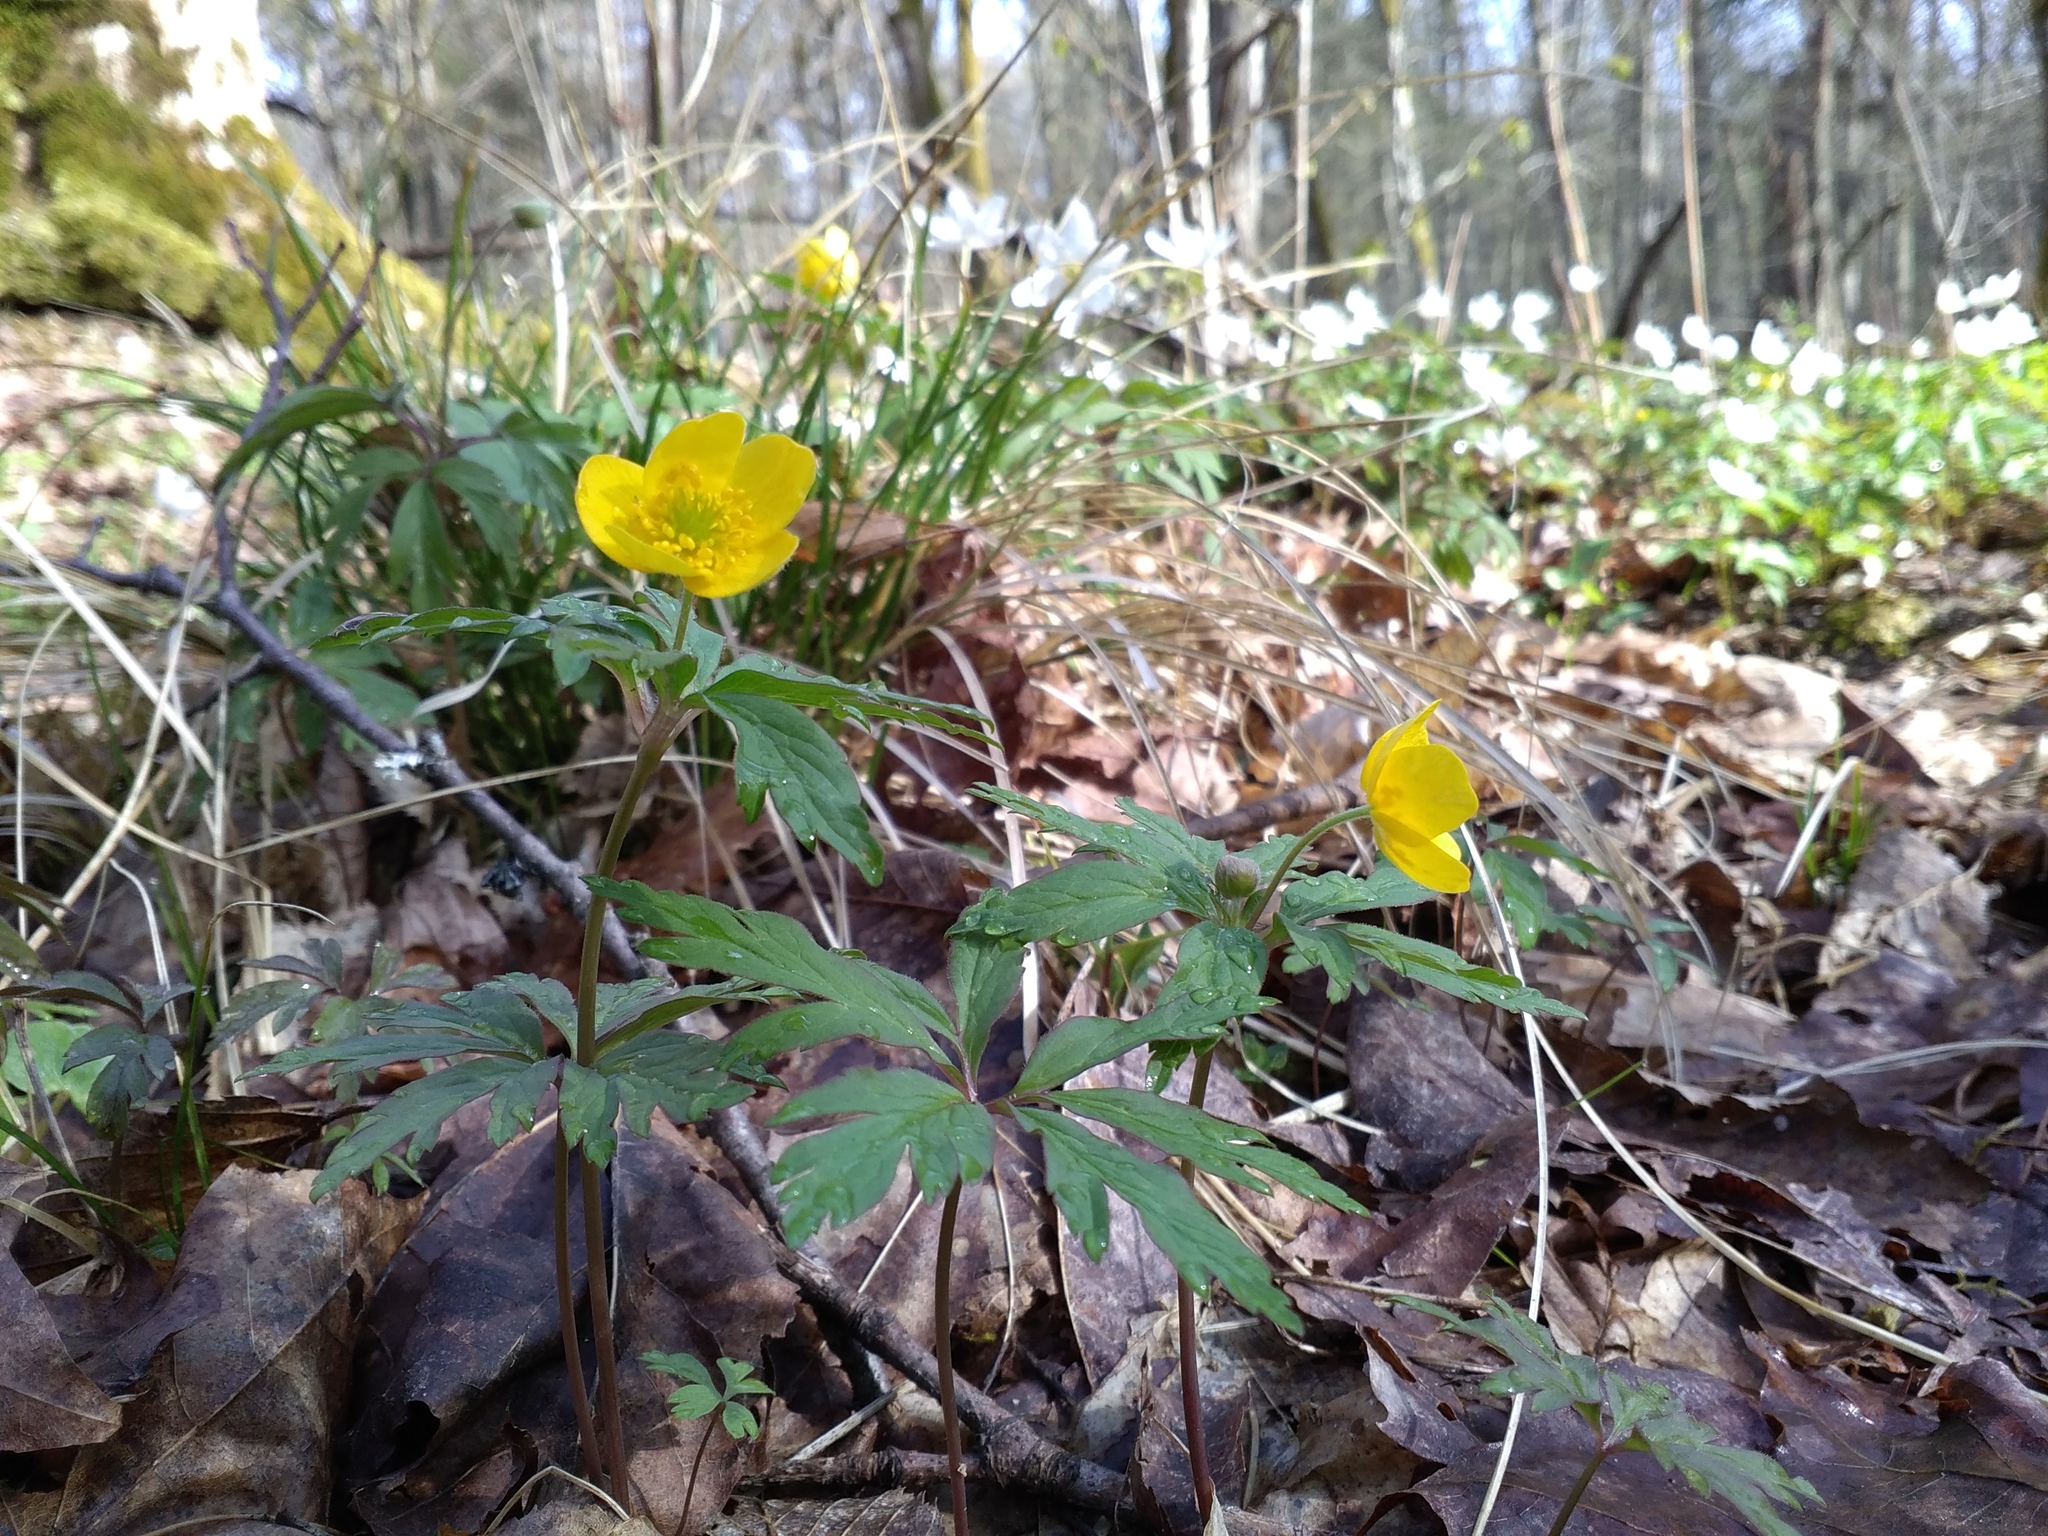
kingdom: Plantae
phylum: Tracheophyta
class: Magnoliopsida
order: Ranunculales
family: Ranunculaceae
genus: Anemone
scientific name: Anemone ranunculoides
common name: Yellow anemone
